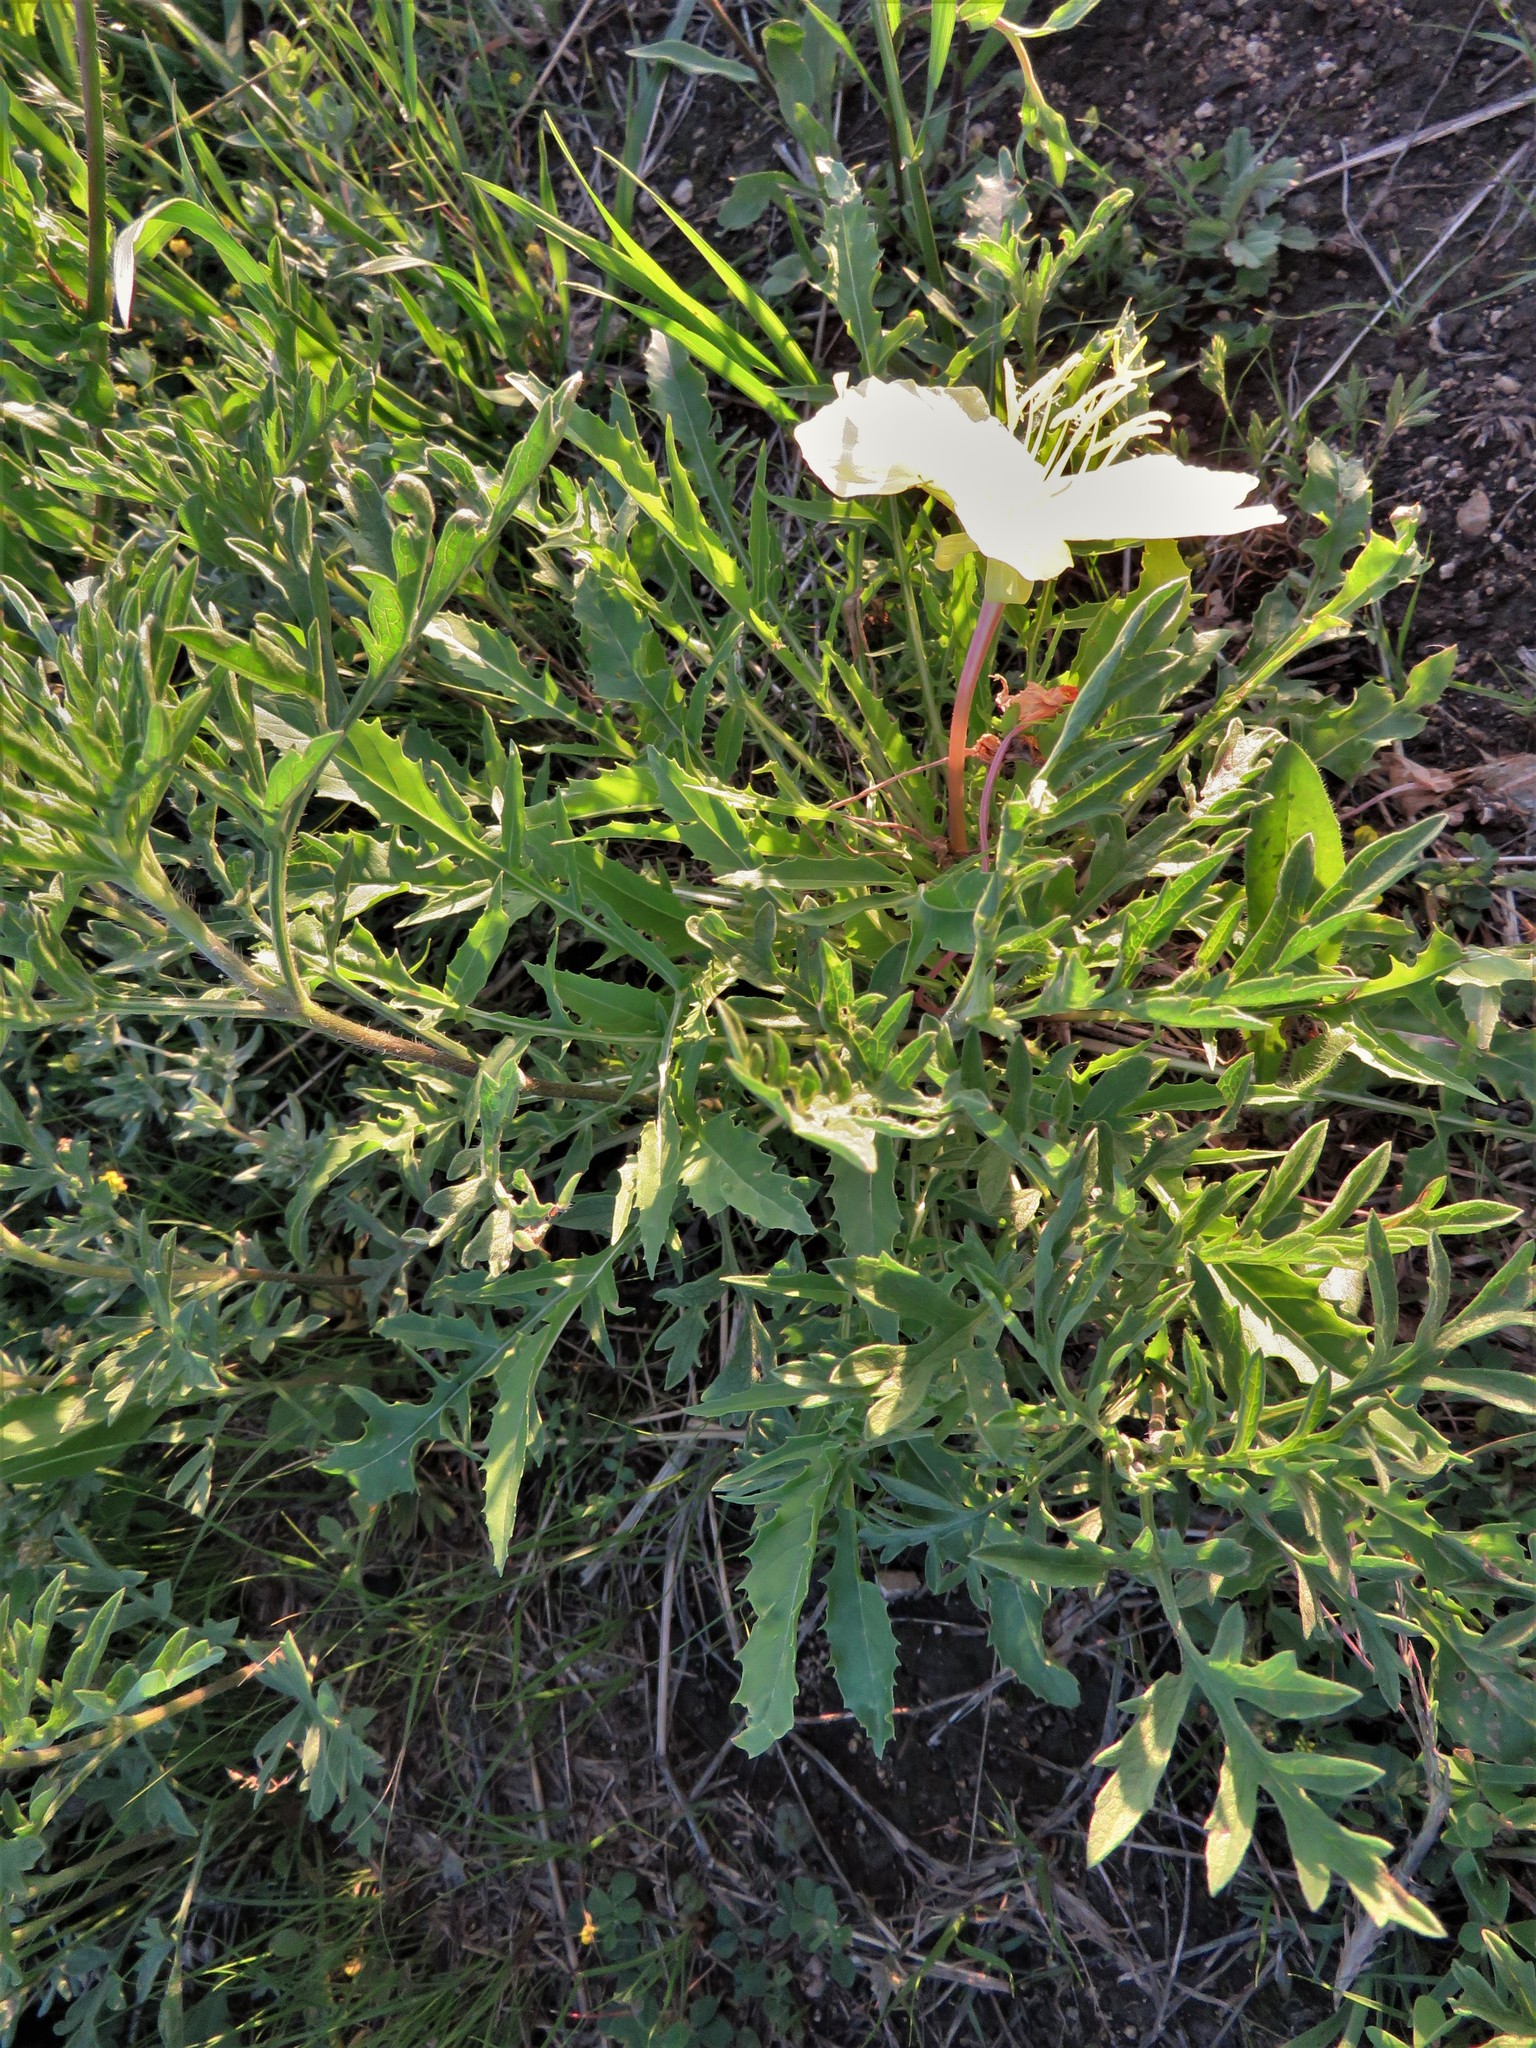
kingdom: Plantae
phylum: Tracheophyta
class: Magnoliopsida
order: Myrtales
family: Onagraceae
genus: Oenothera
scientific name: Oenothera triloba
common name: Sessile evening-primrose
